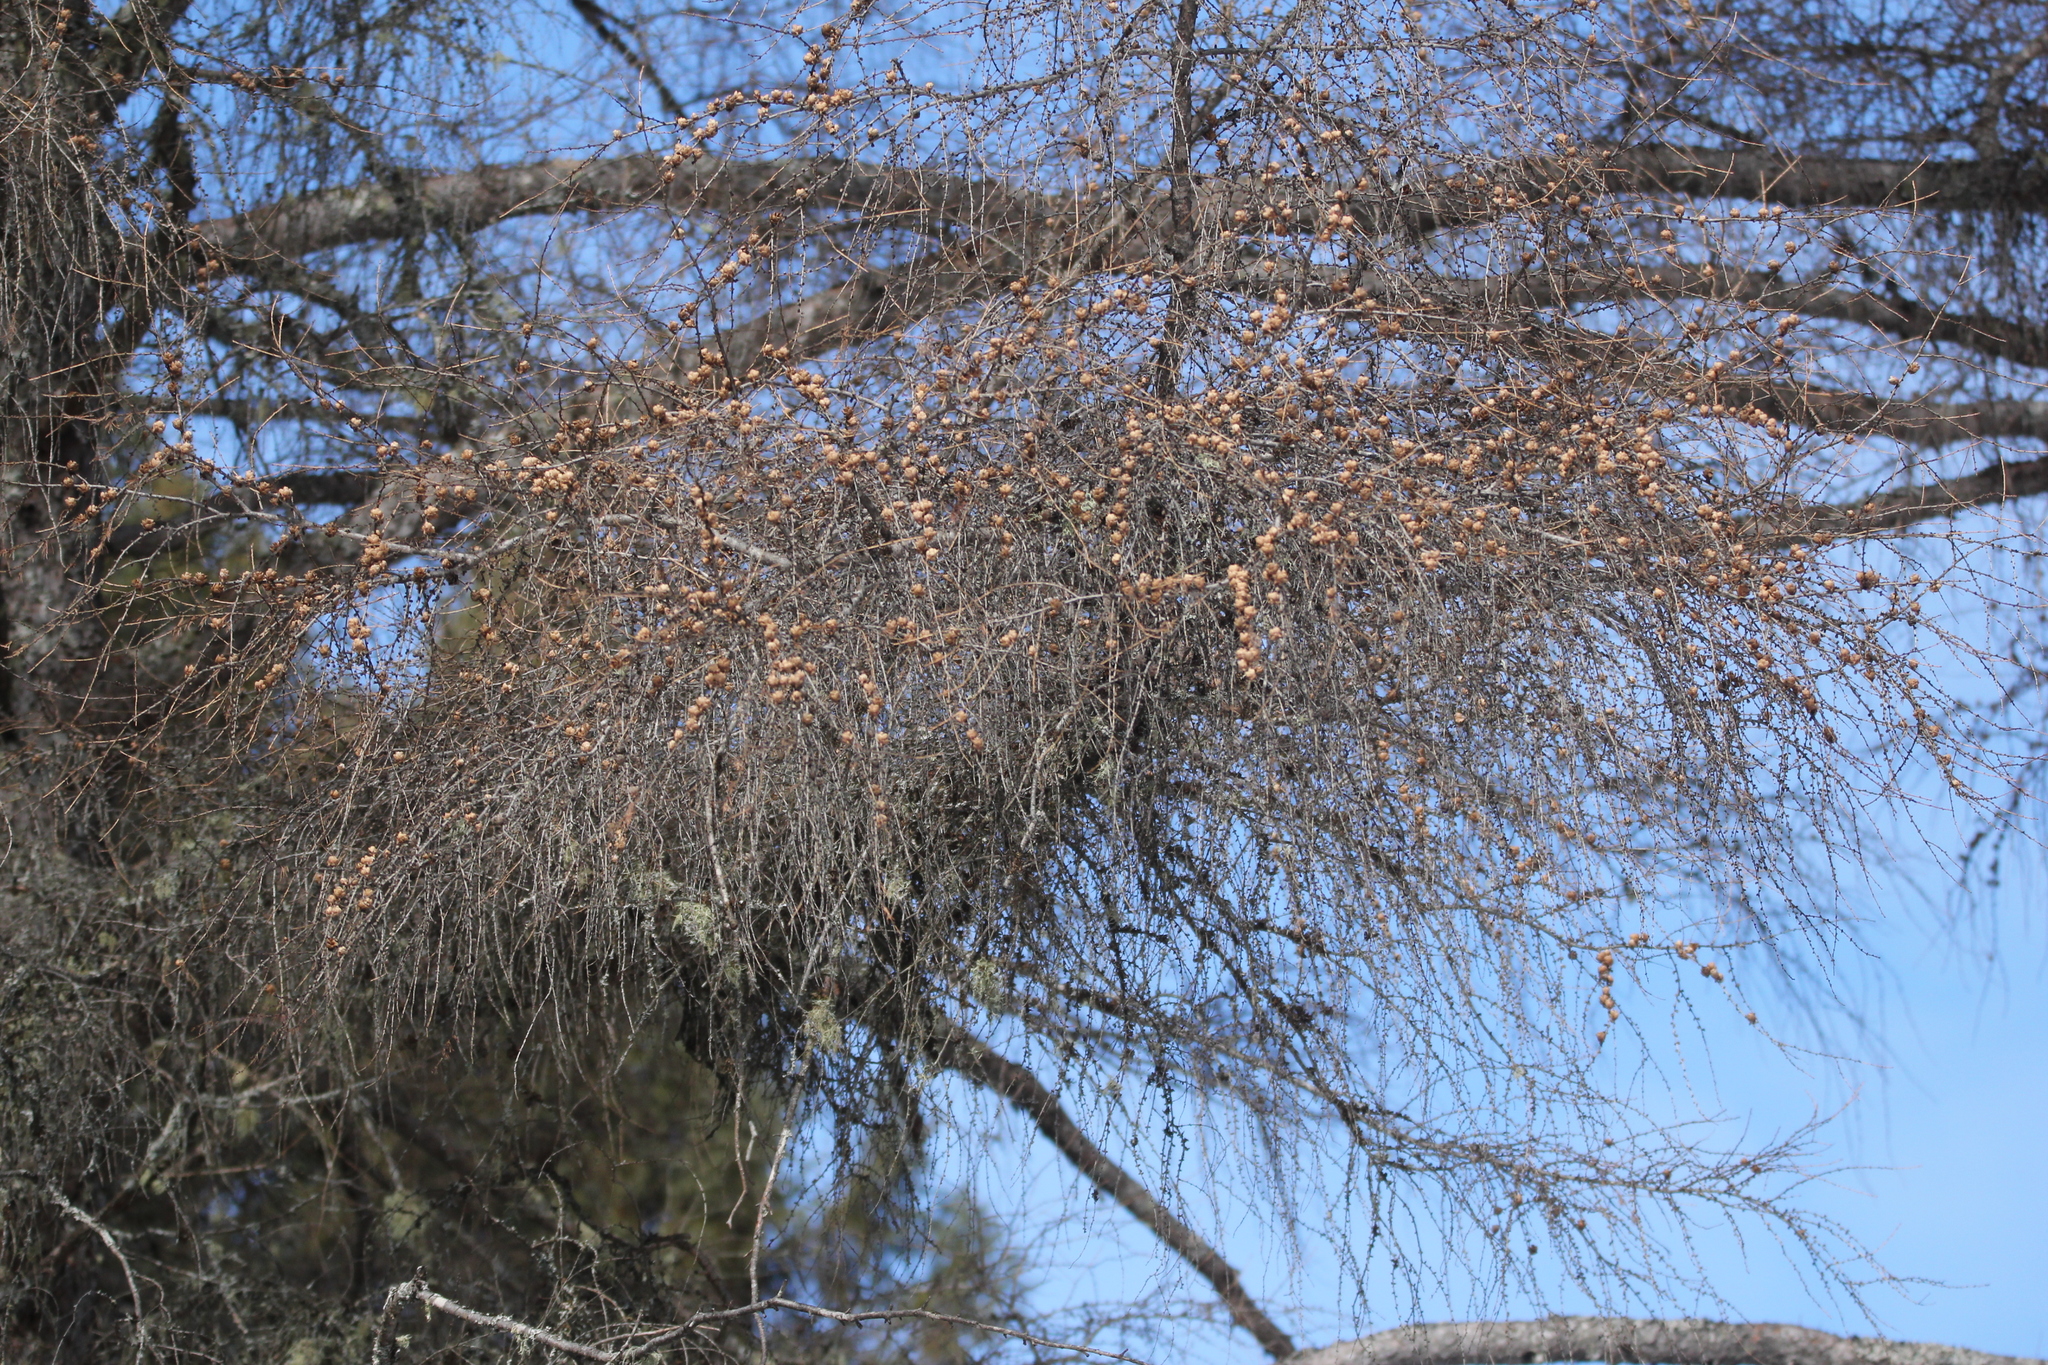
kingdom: Plantae
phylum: Tracheophyta
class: Pinopsida
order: Pinales
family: Pinaceae
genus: Larix
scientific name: Larix laricina
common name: American larch
